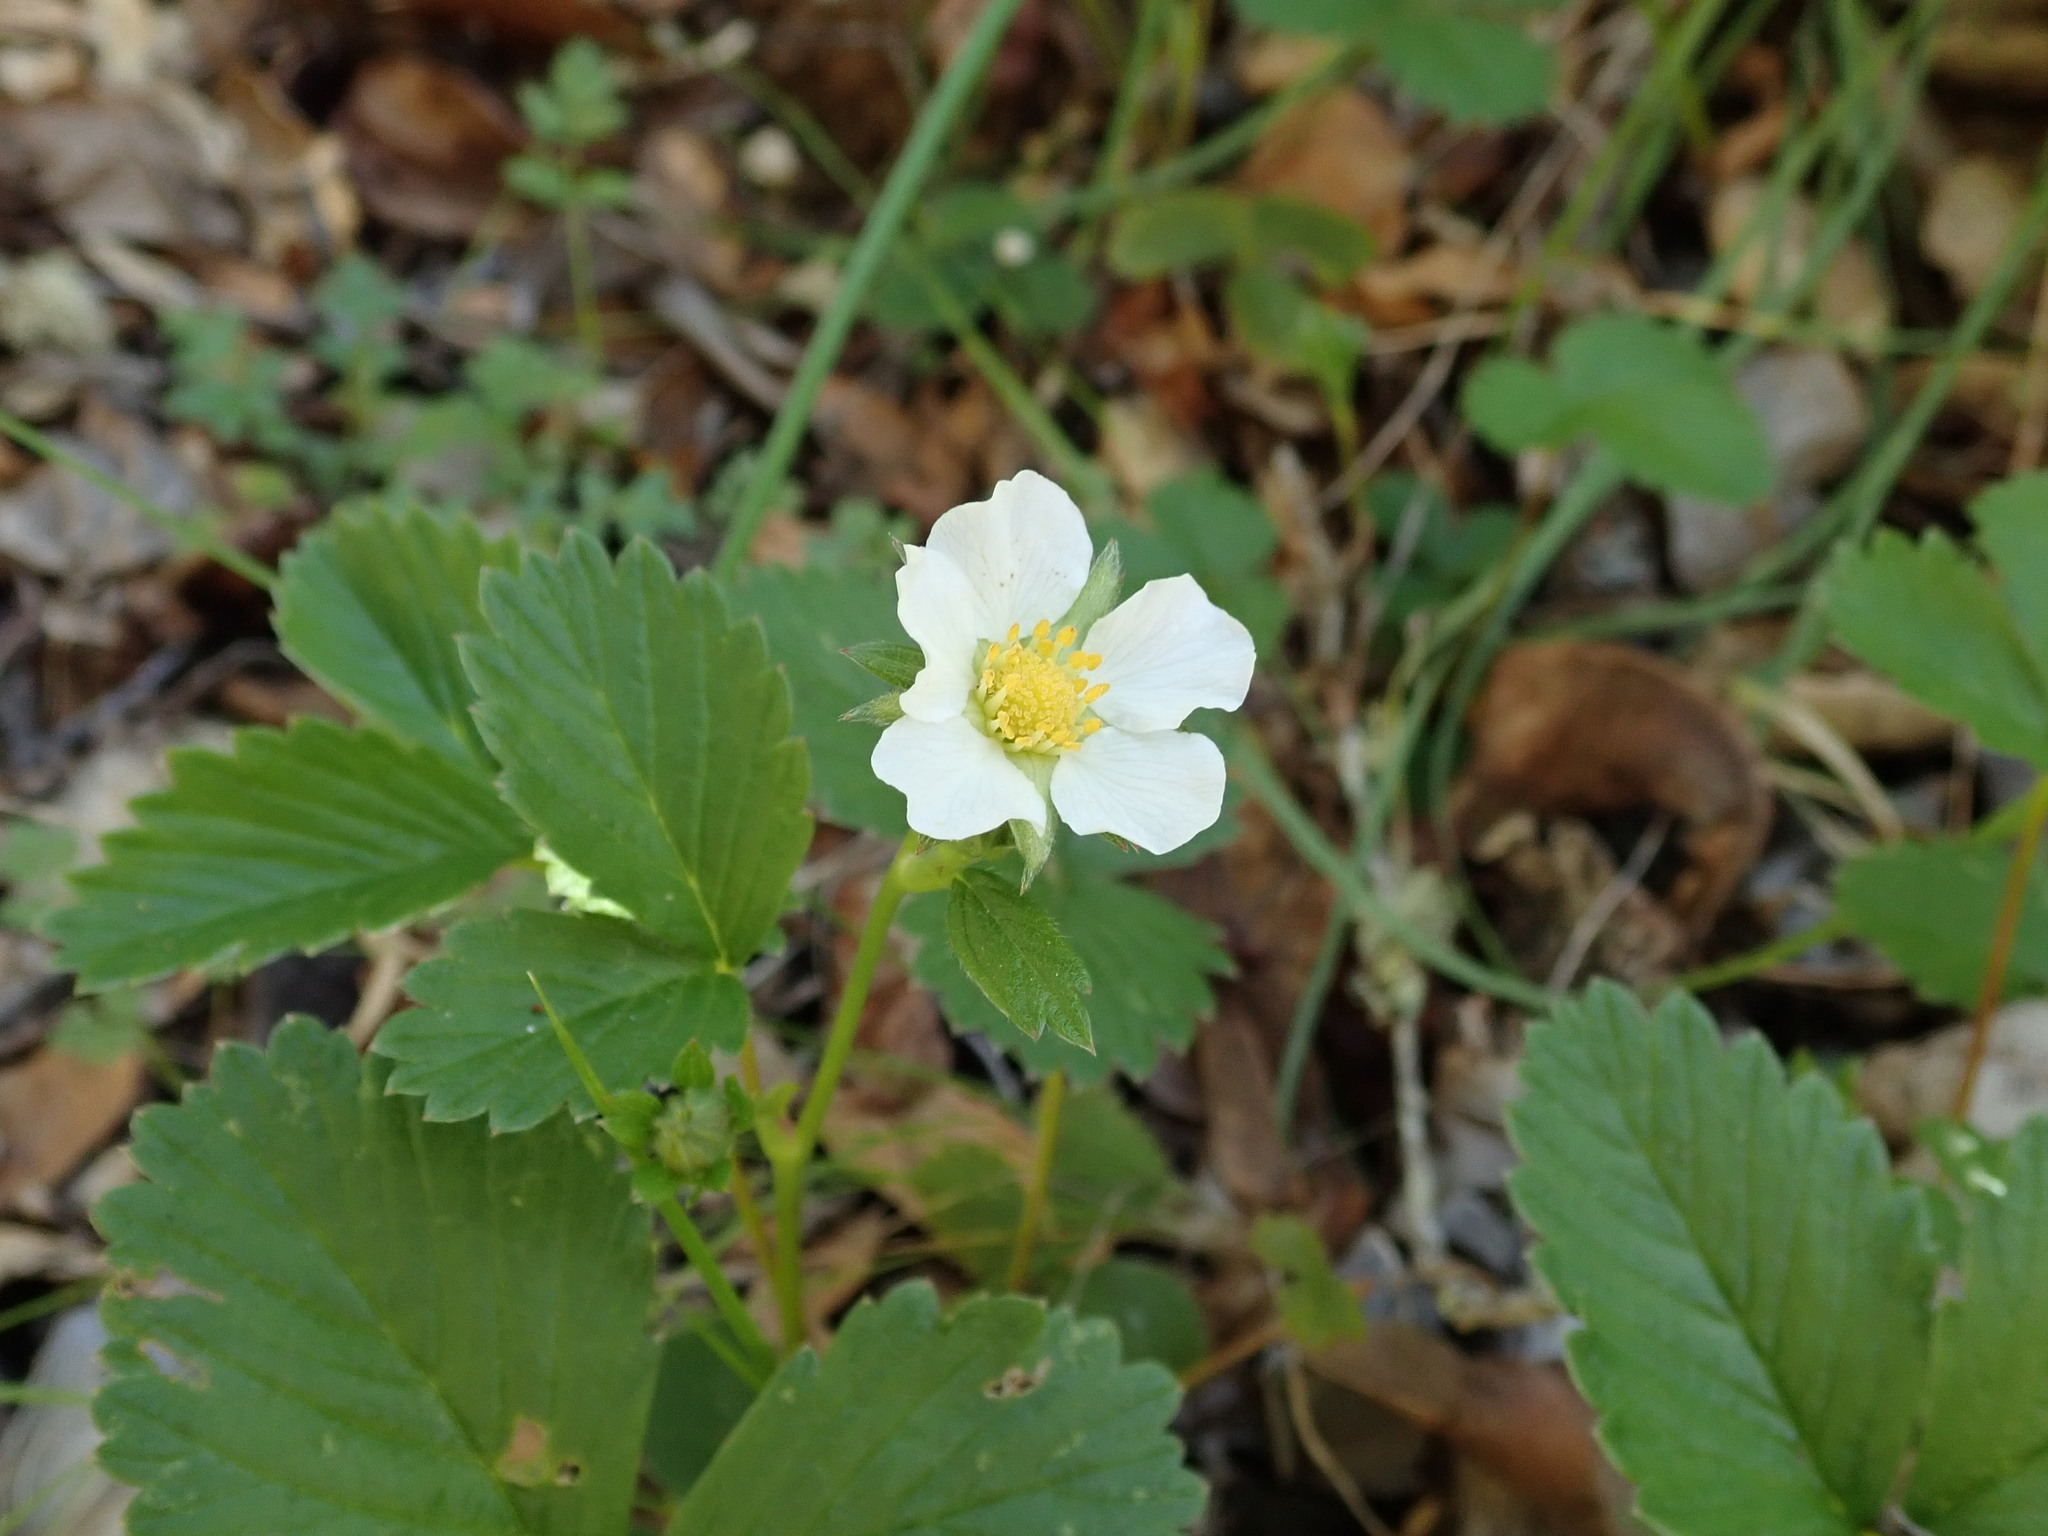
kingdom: Plantae
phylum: Tracheophyta
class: Magnoliopsida
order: Rosales
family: Rosaceae
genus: Fragaria
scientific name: Fragaria vesca
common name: Wild strawberry
